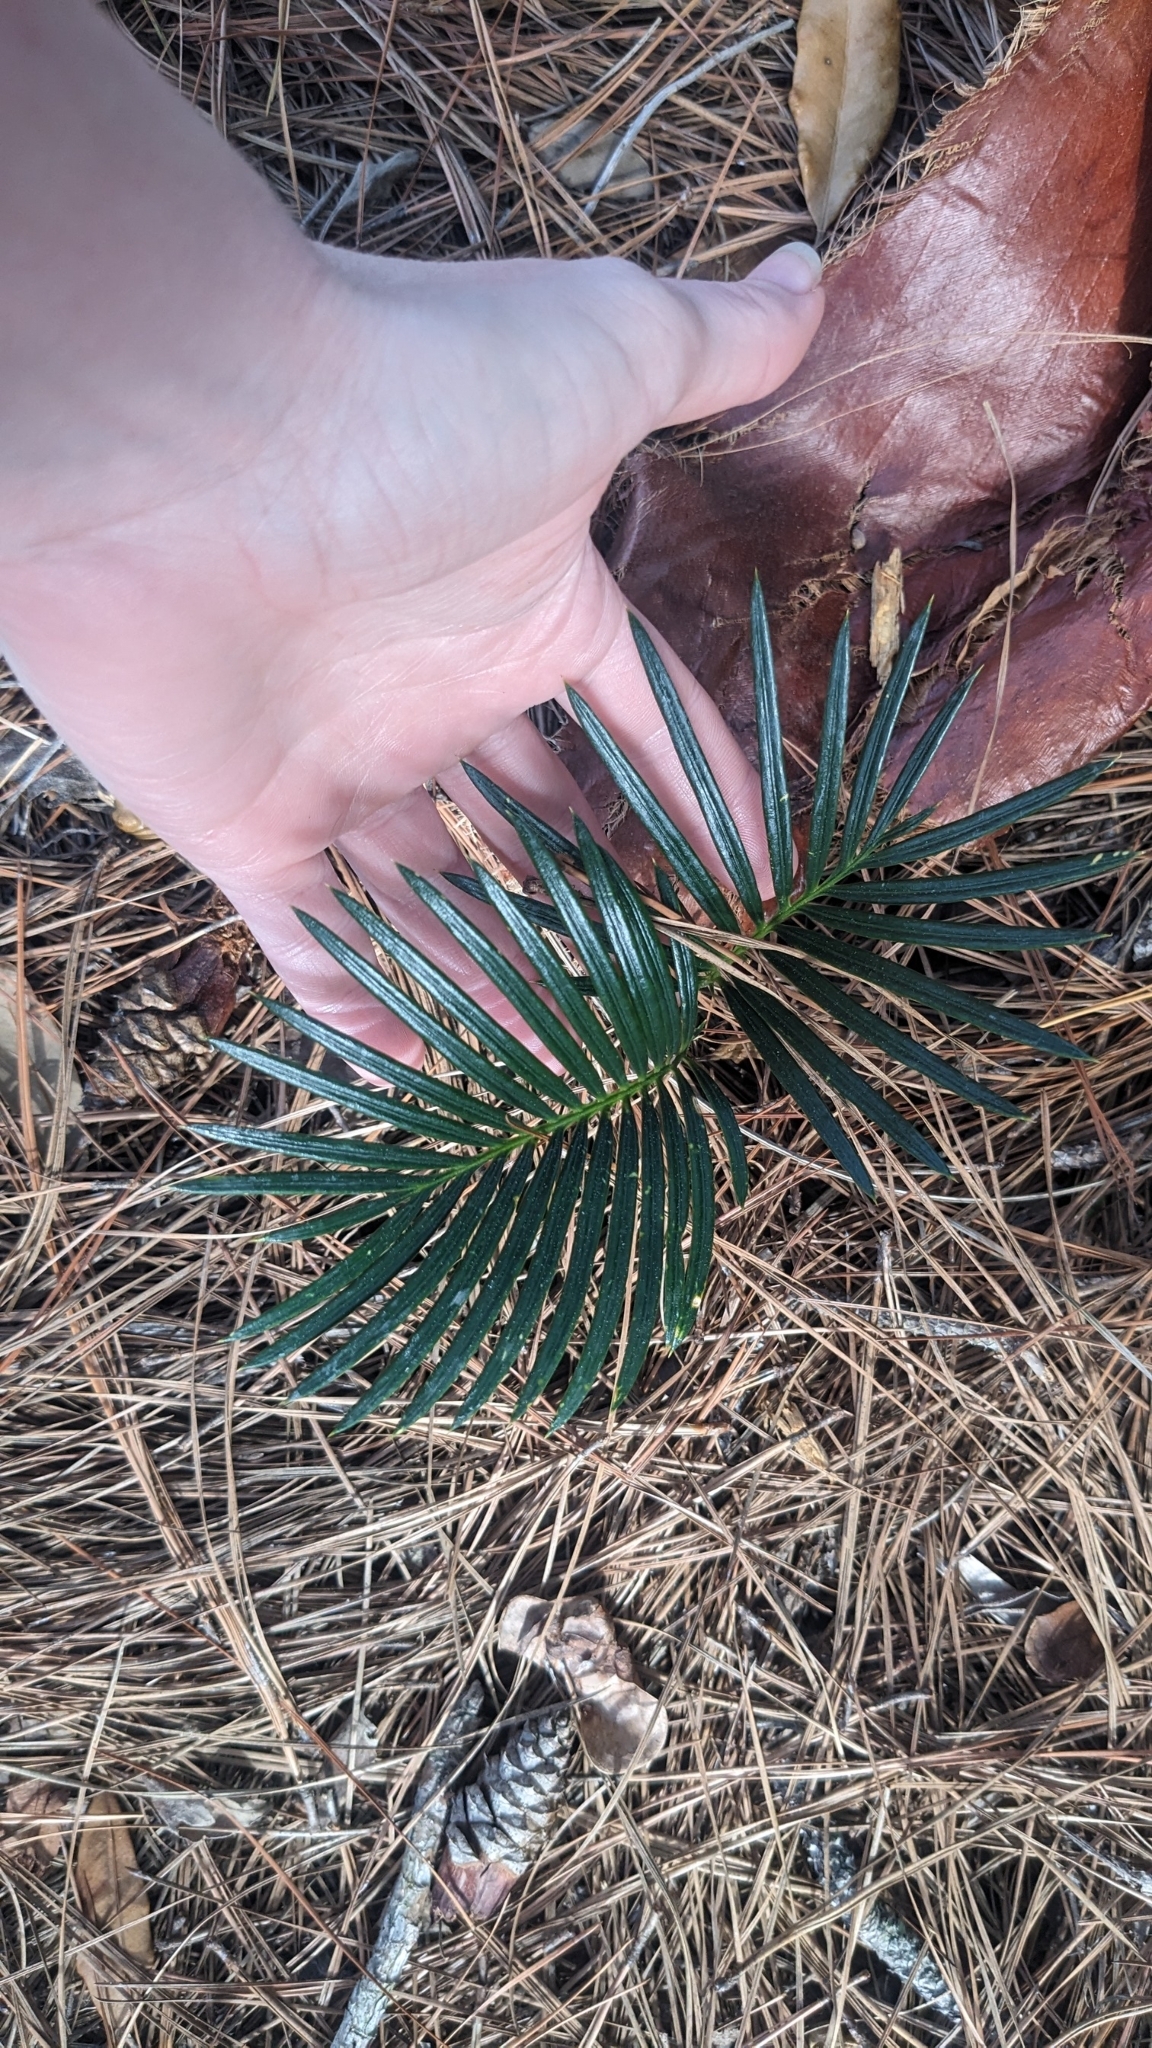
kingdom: Plantae
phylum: Tracheophyta
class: Cycadopsida
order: Cycadales
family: Cycadaceae
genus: Cycas
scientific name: Cycas revoluta
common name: Sago palm
